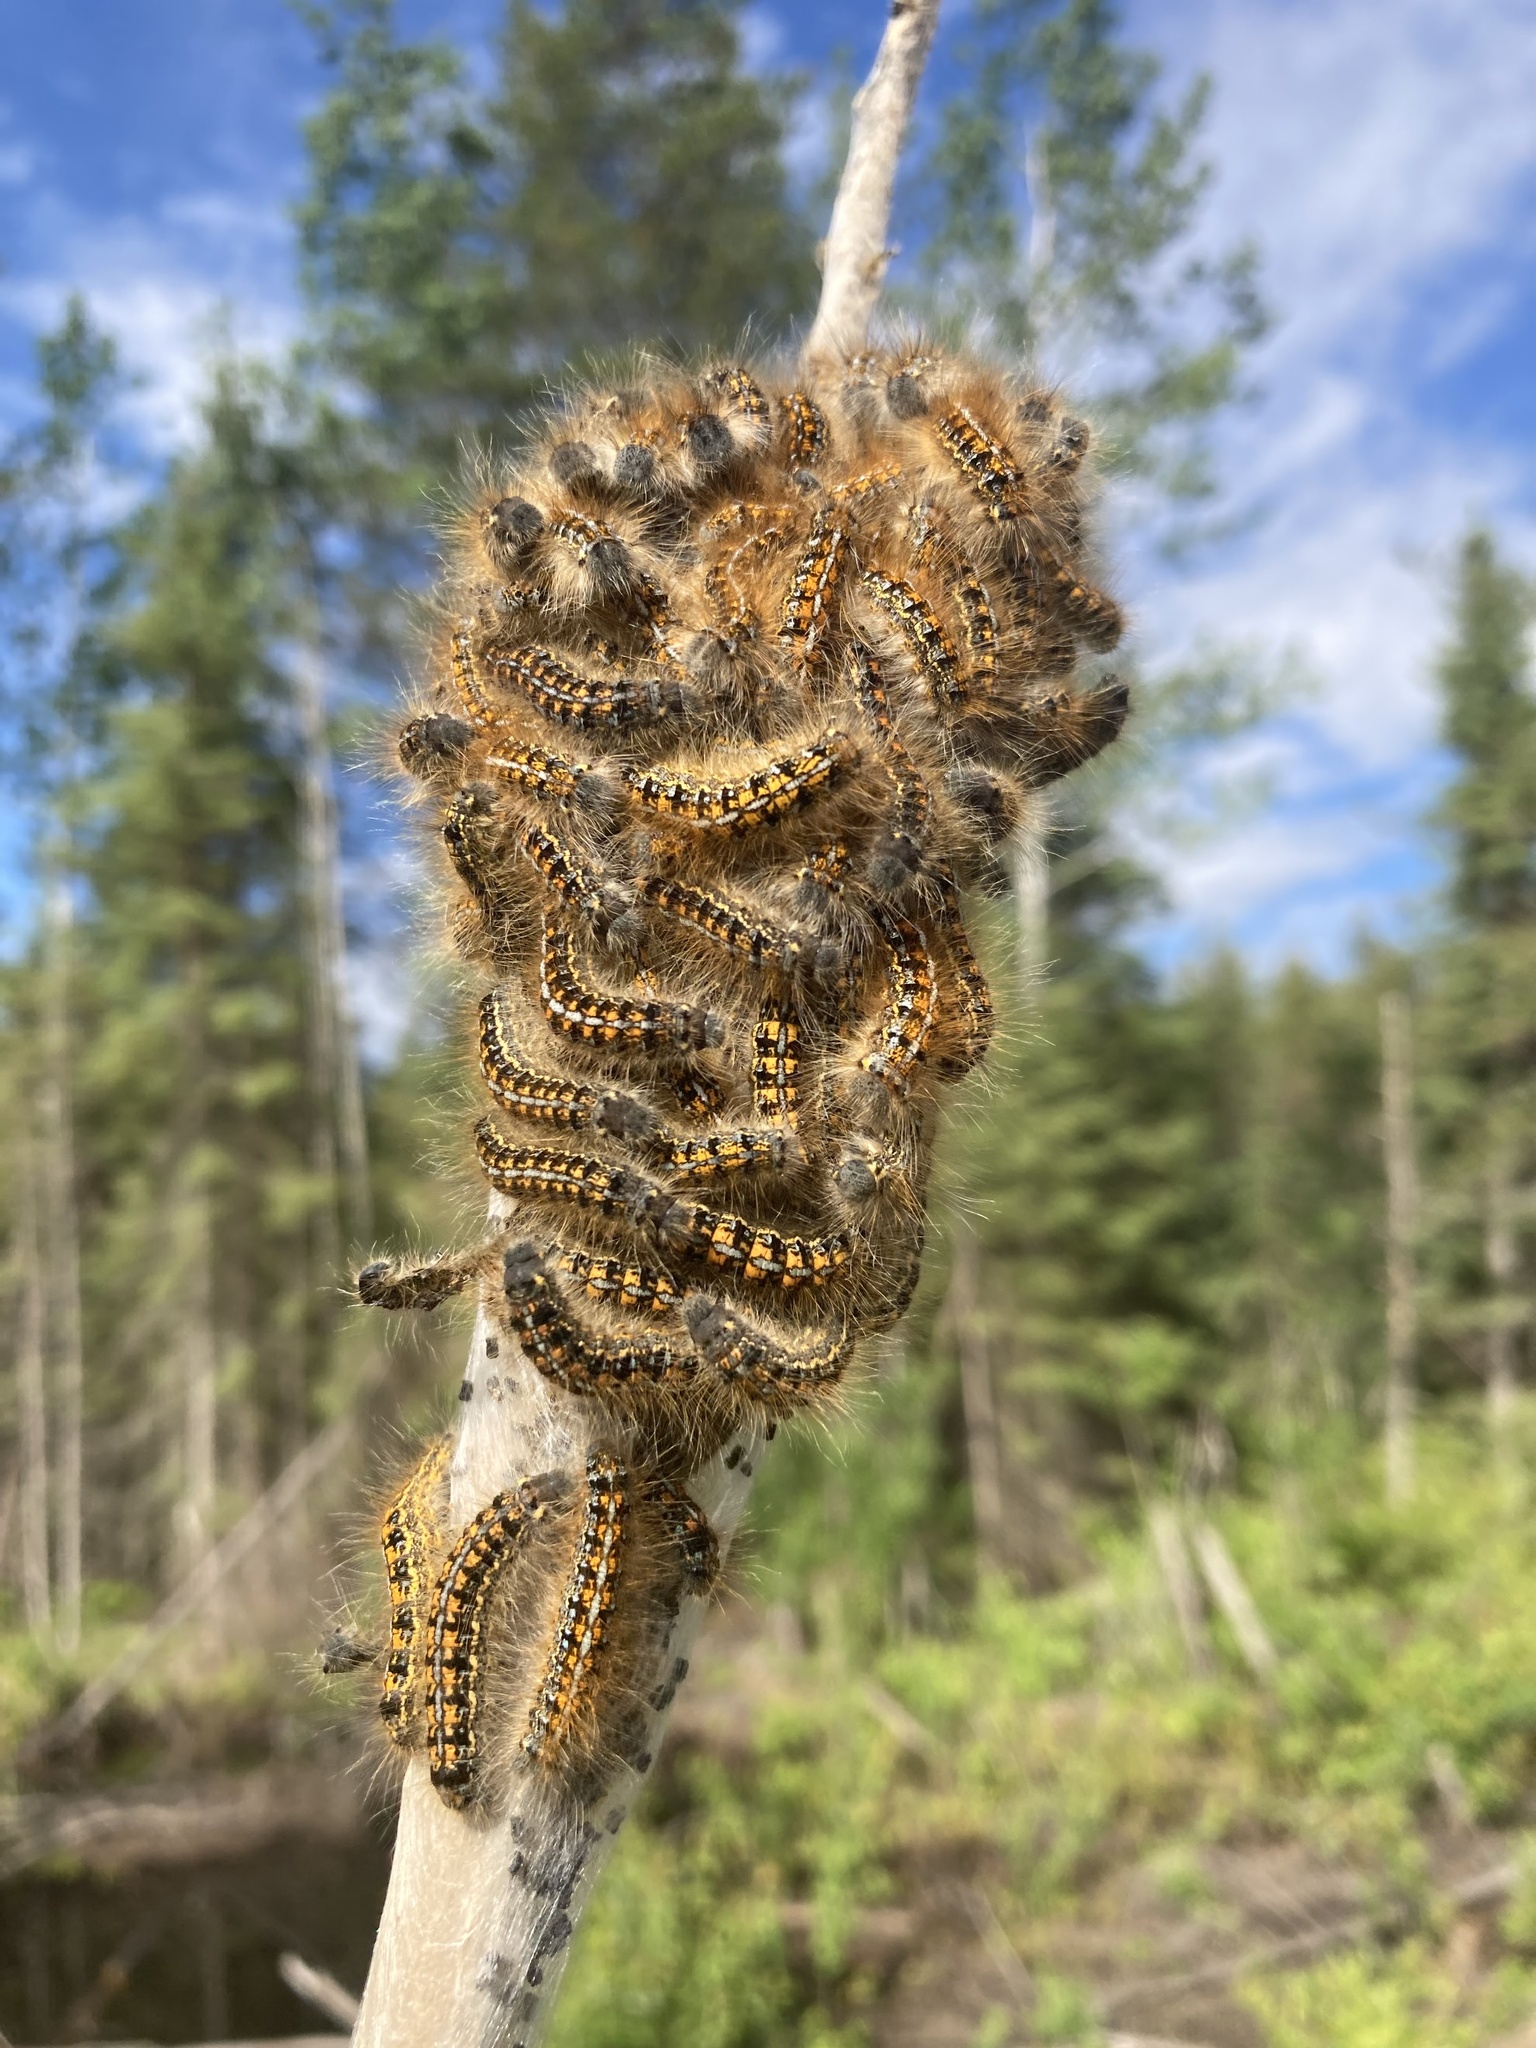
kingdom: Animalia
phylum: Arthropoda
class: Insecta
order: Lepidoptera
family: Lasiocampidae
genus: Malacosoma
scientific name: Malacosoma californica
